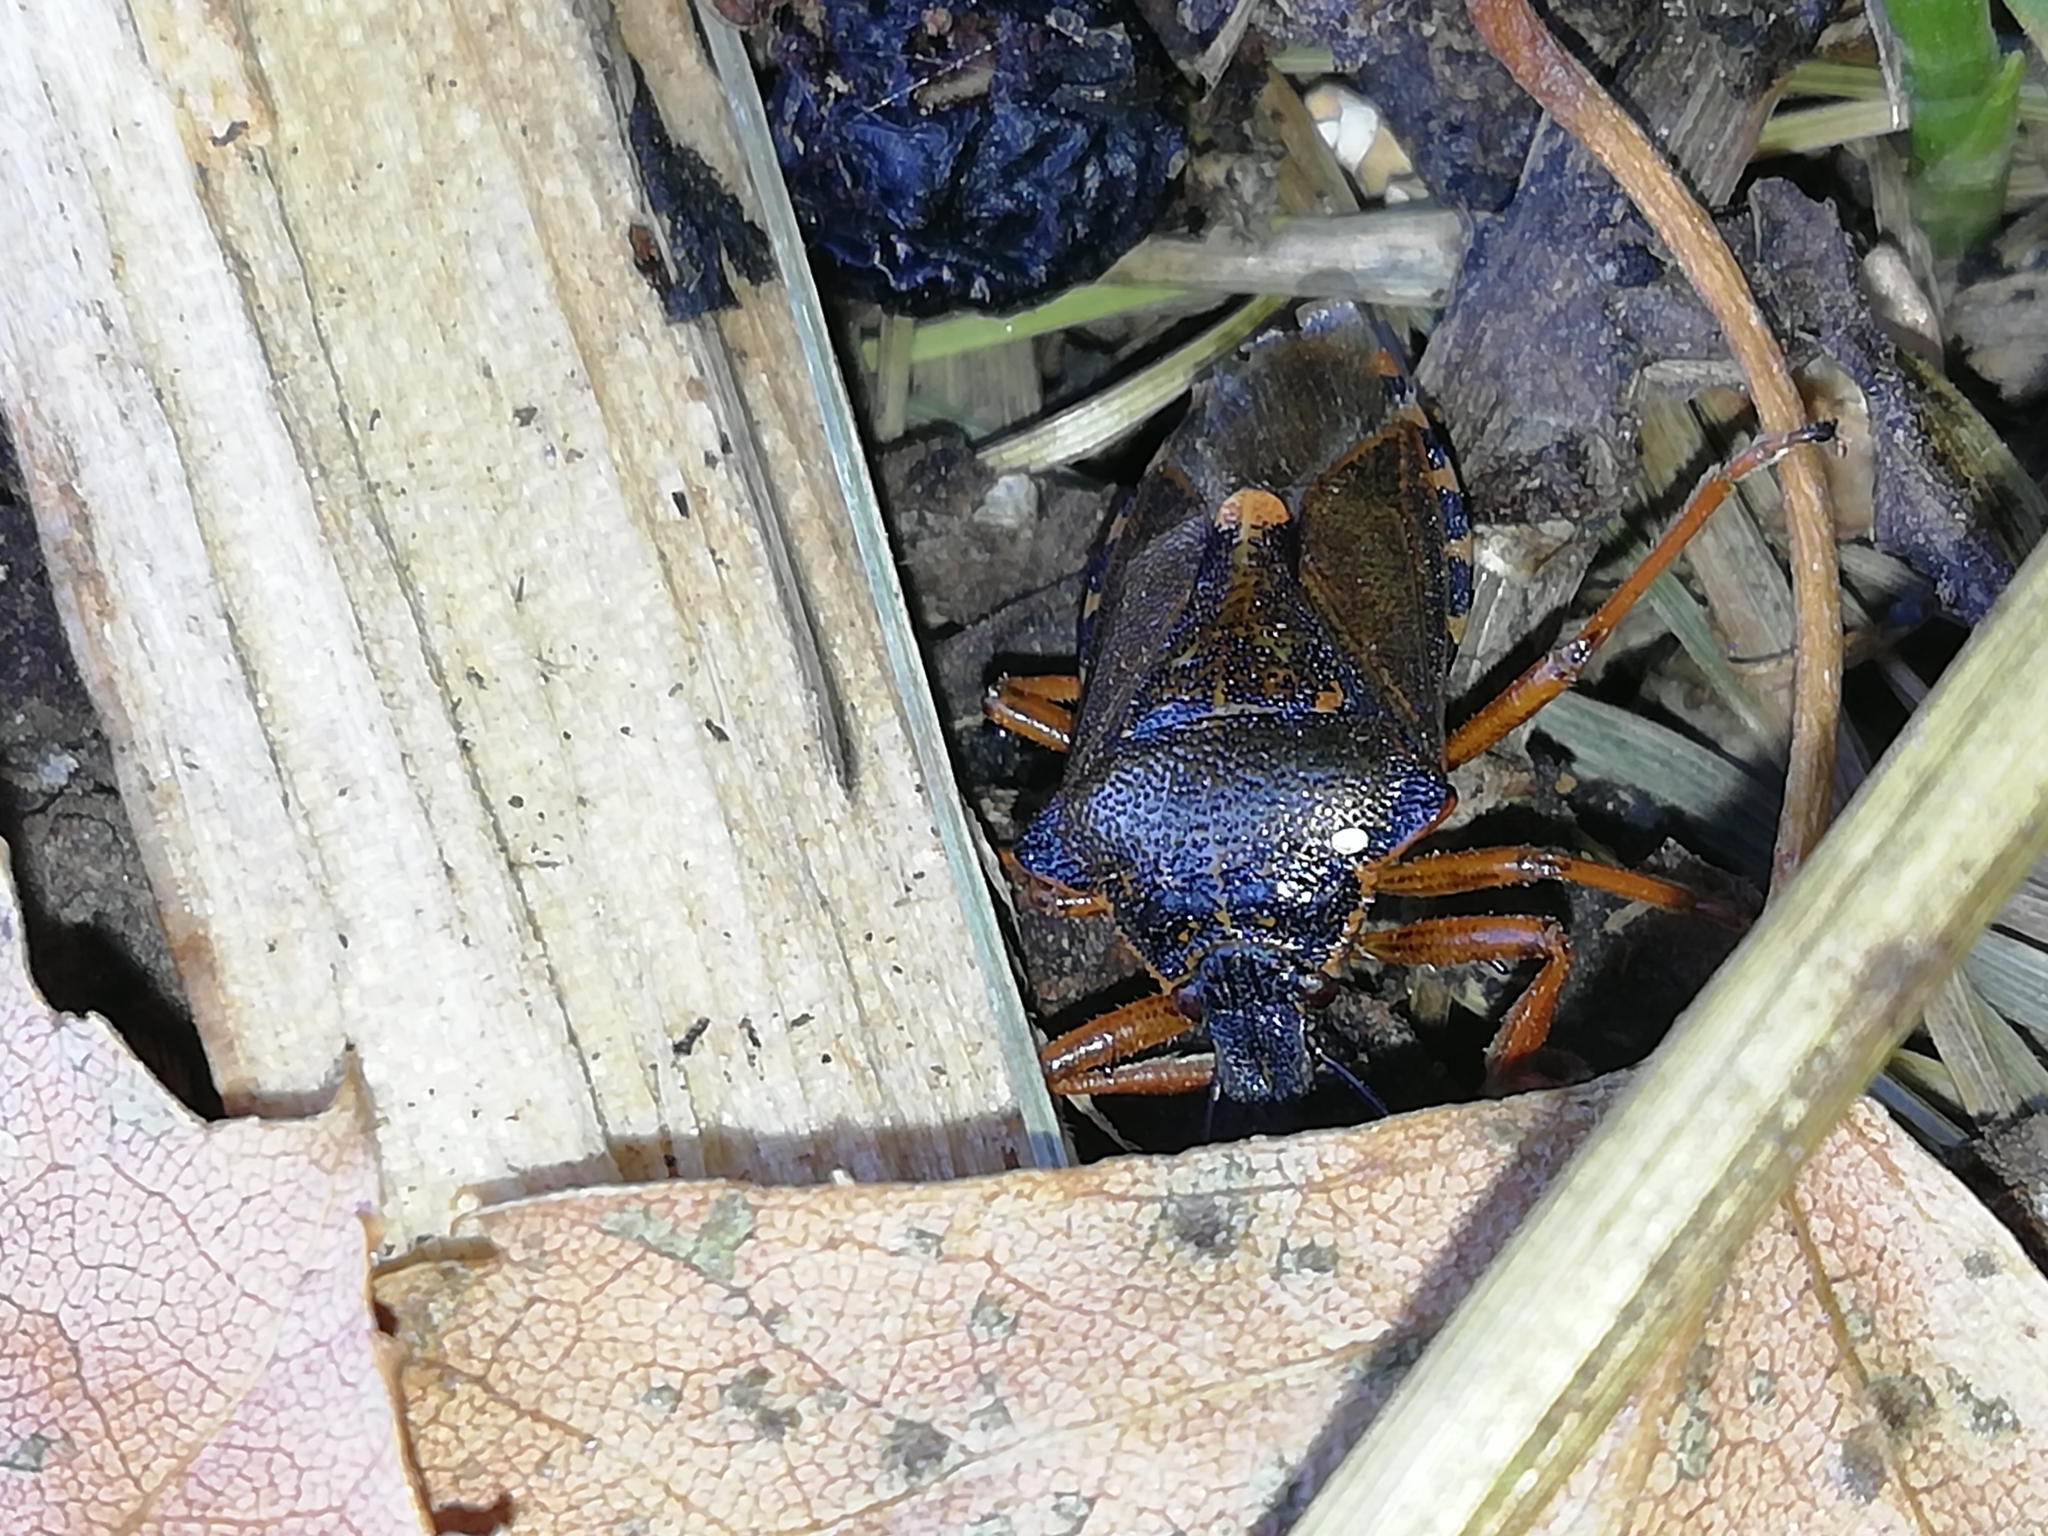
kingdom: Animalia
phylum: Arthropoda
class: Insecta
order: Hemiptera
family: Pentatomidae
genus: Pinthaeus
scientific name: Pinthaeus sanguinipes
